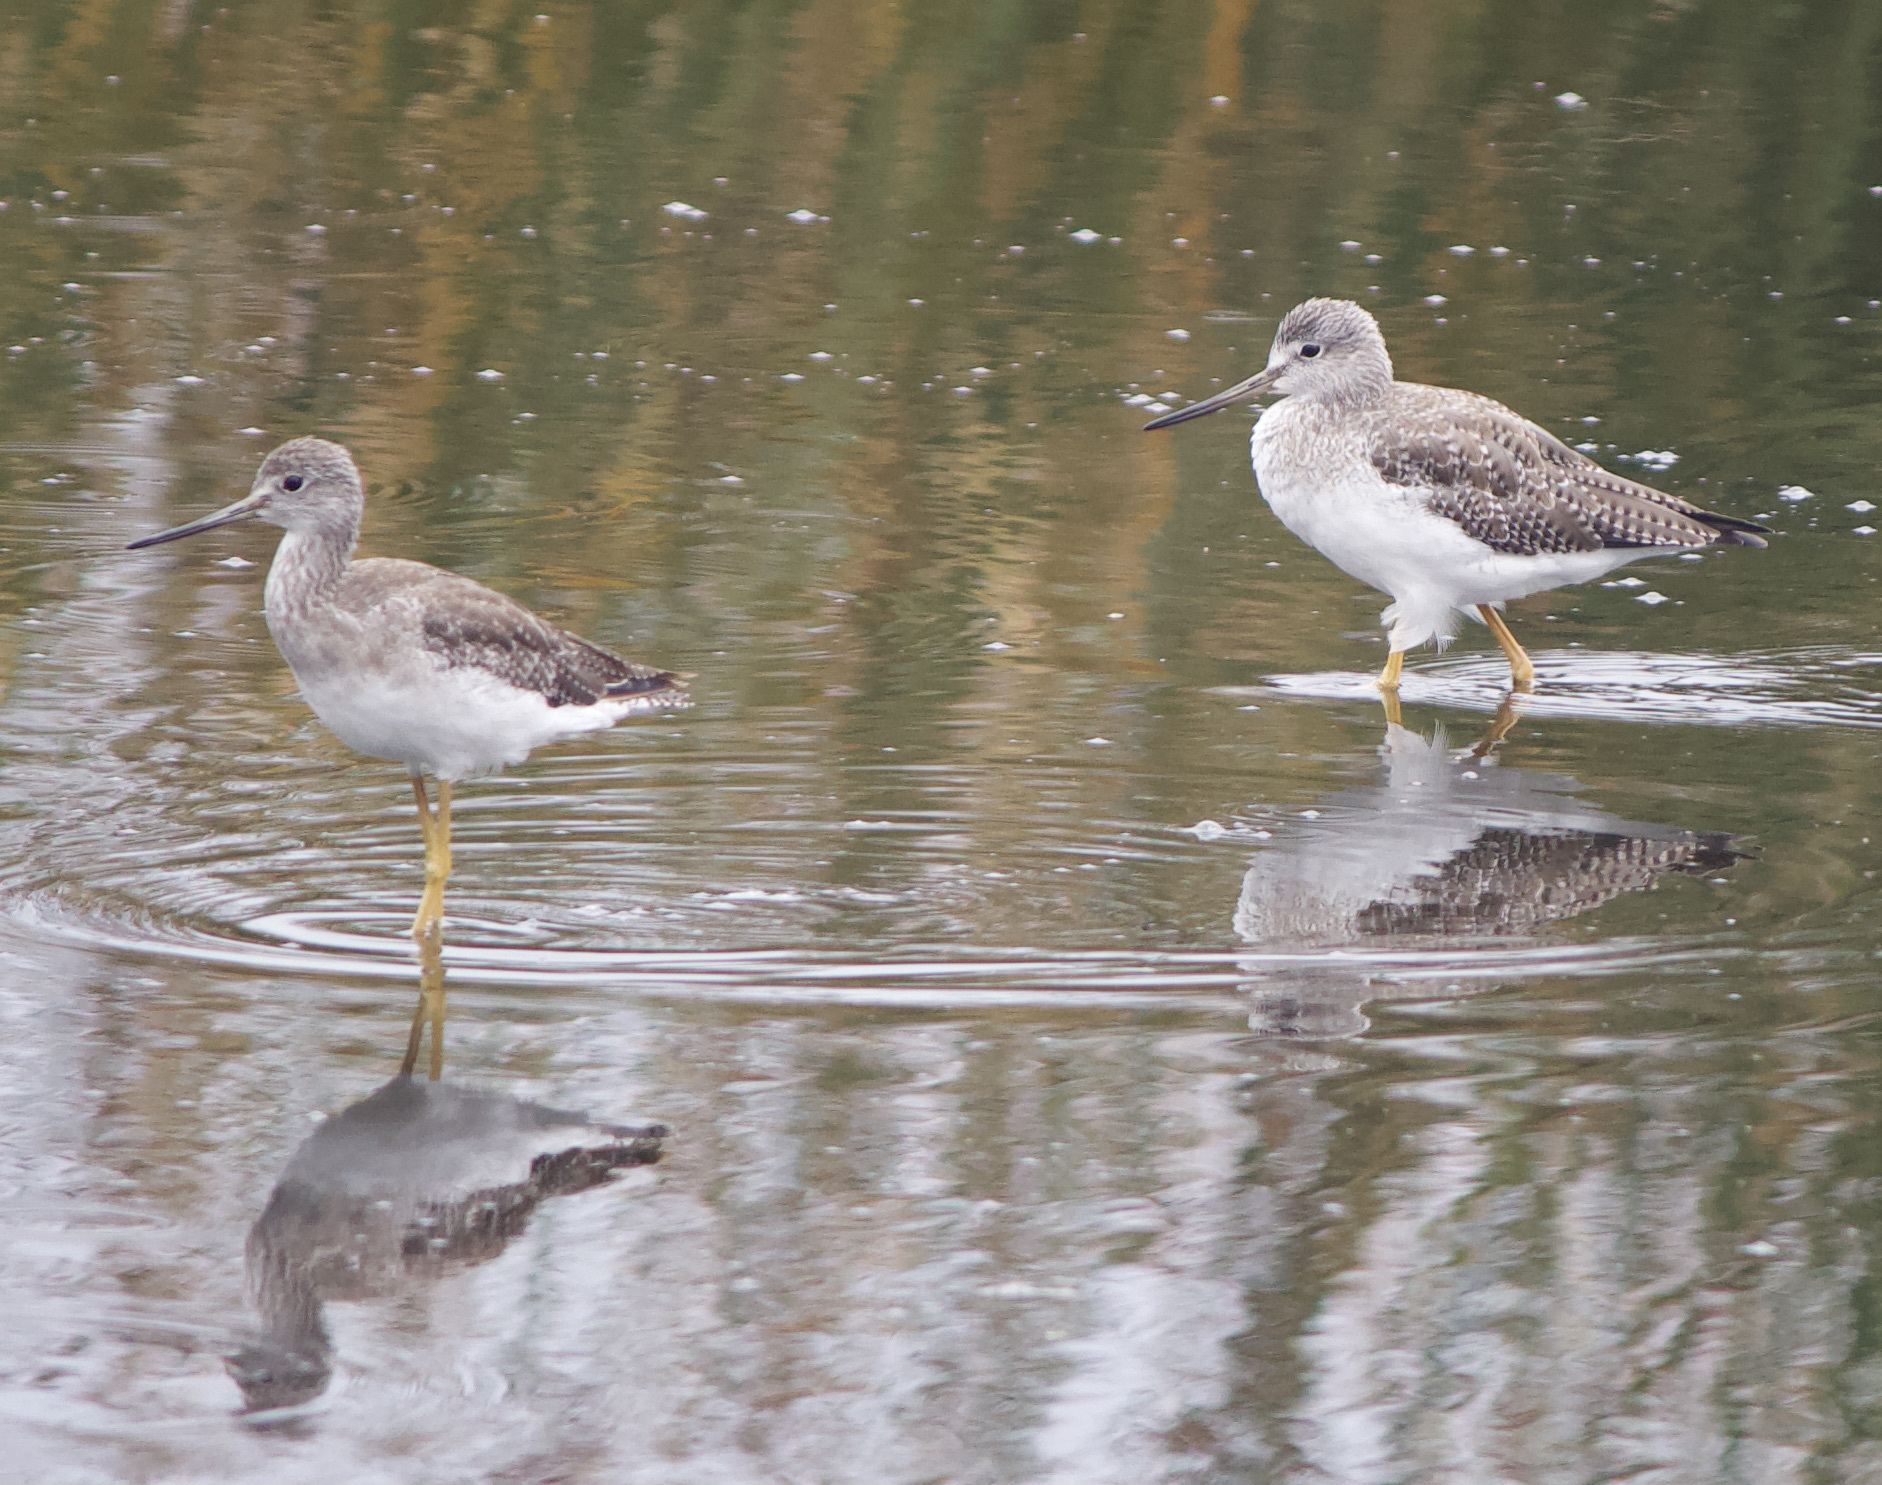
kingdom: Animalia
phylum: Chordata
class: Aves
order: Charadriiformes
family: Scolopacidae
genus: Tringa
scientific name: Tringa melanoleuca
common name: Greater yellowlegs
